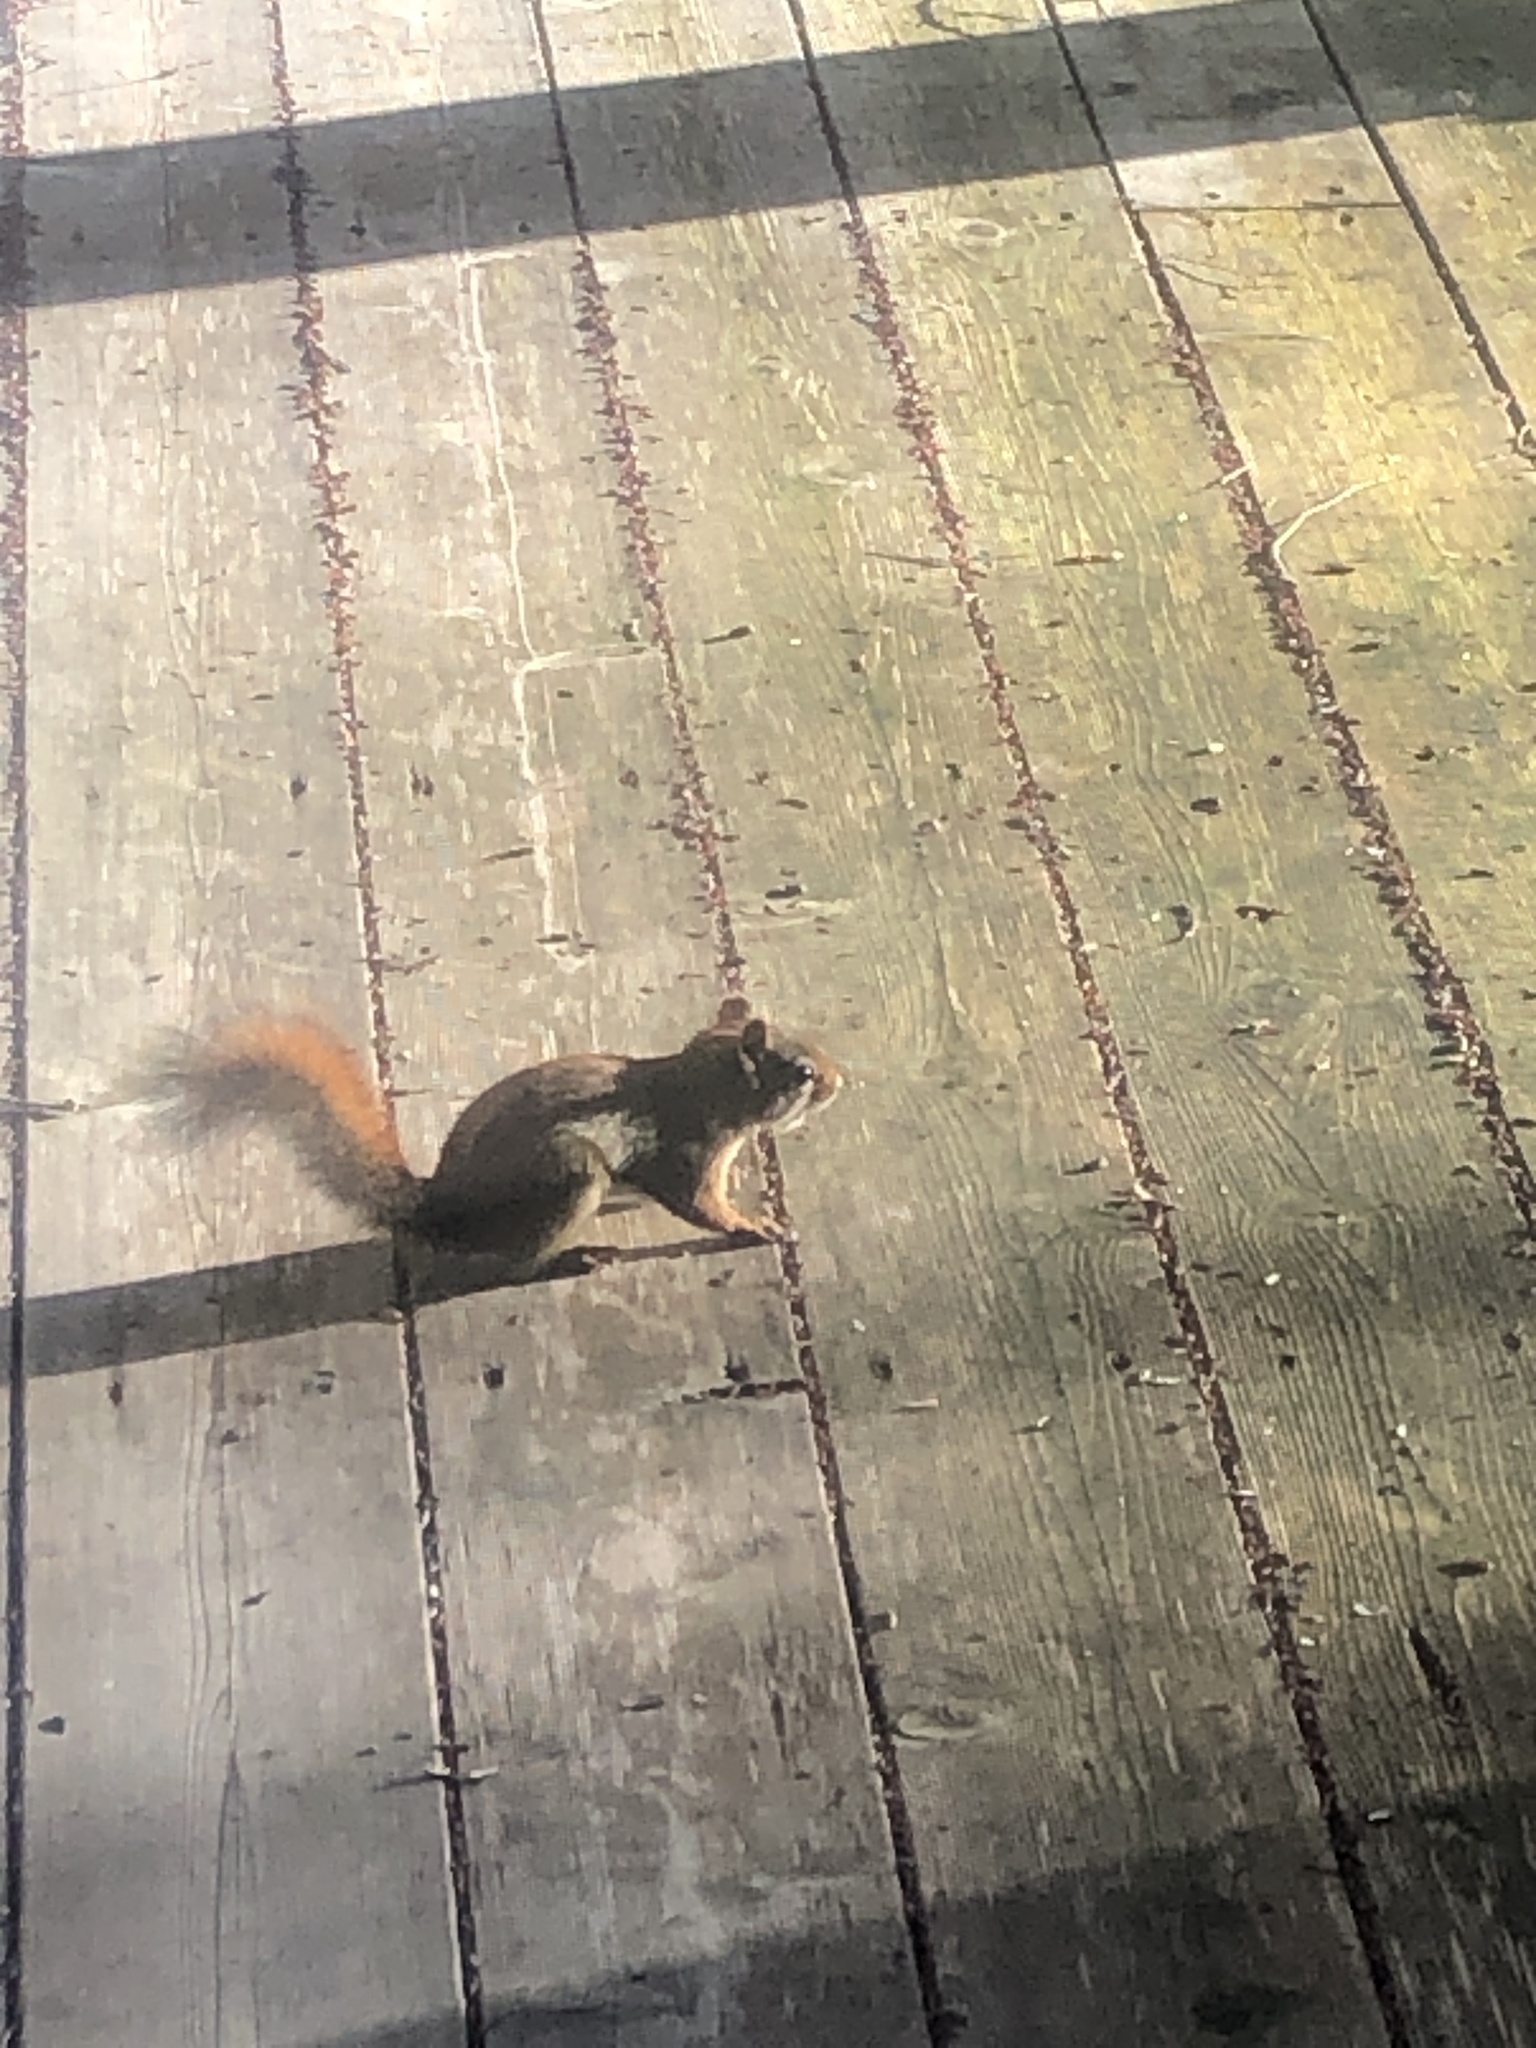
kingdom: Animalia
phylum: Chordata
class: Mammalia
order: Rodentia
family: Sciuridae
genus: Tamiasciurus
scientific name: Tamiasciurus hudsonicus
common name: Red squirrel
